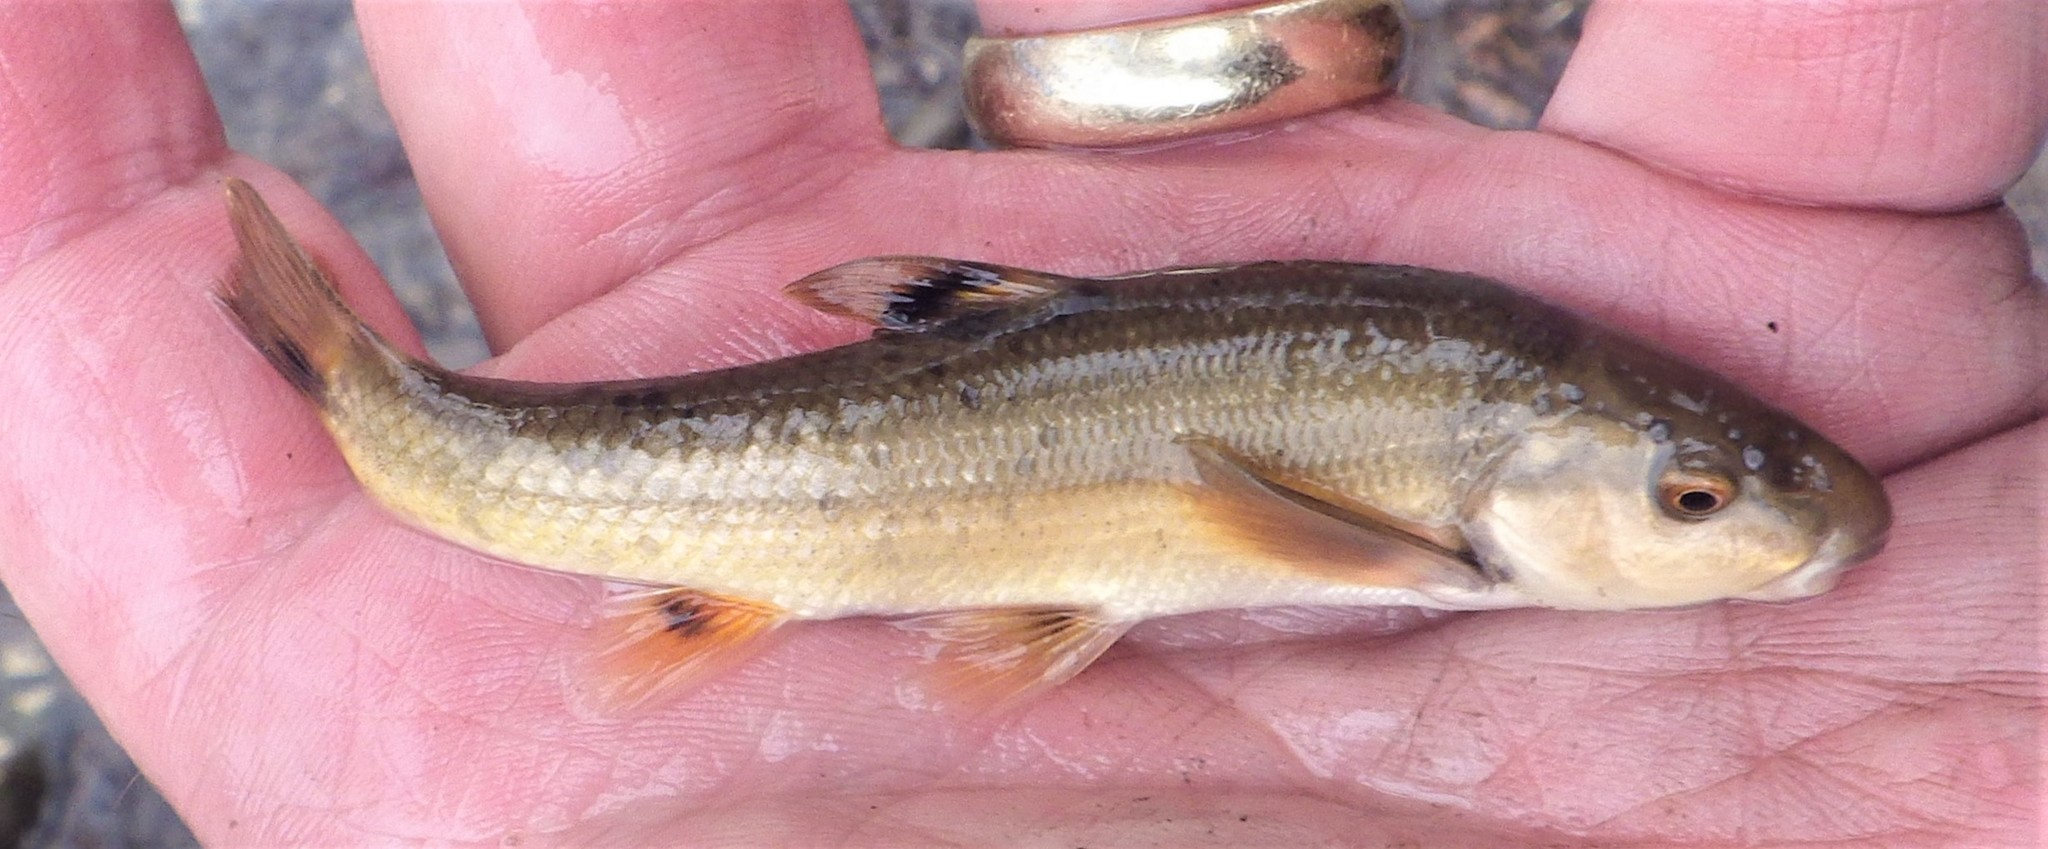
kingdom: Animalia
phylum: Chordata
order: Cypriniformes
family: Cyprinidae
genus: Campostoma
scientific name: Campostoma anomalum
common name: Central stoneroller
